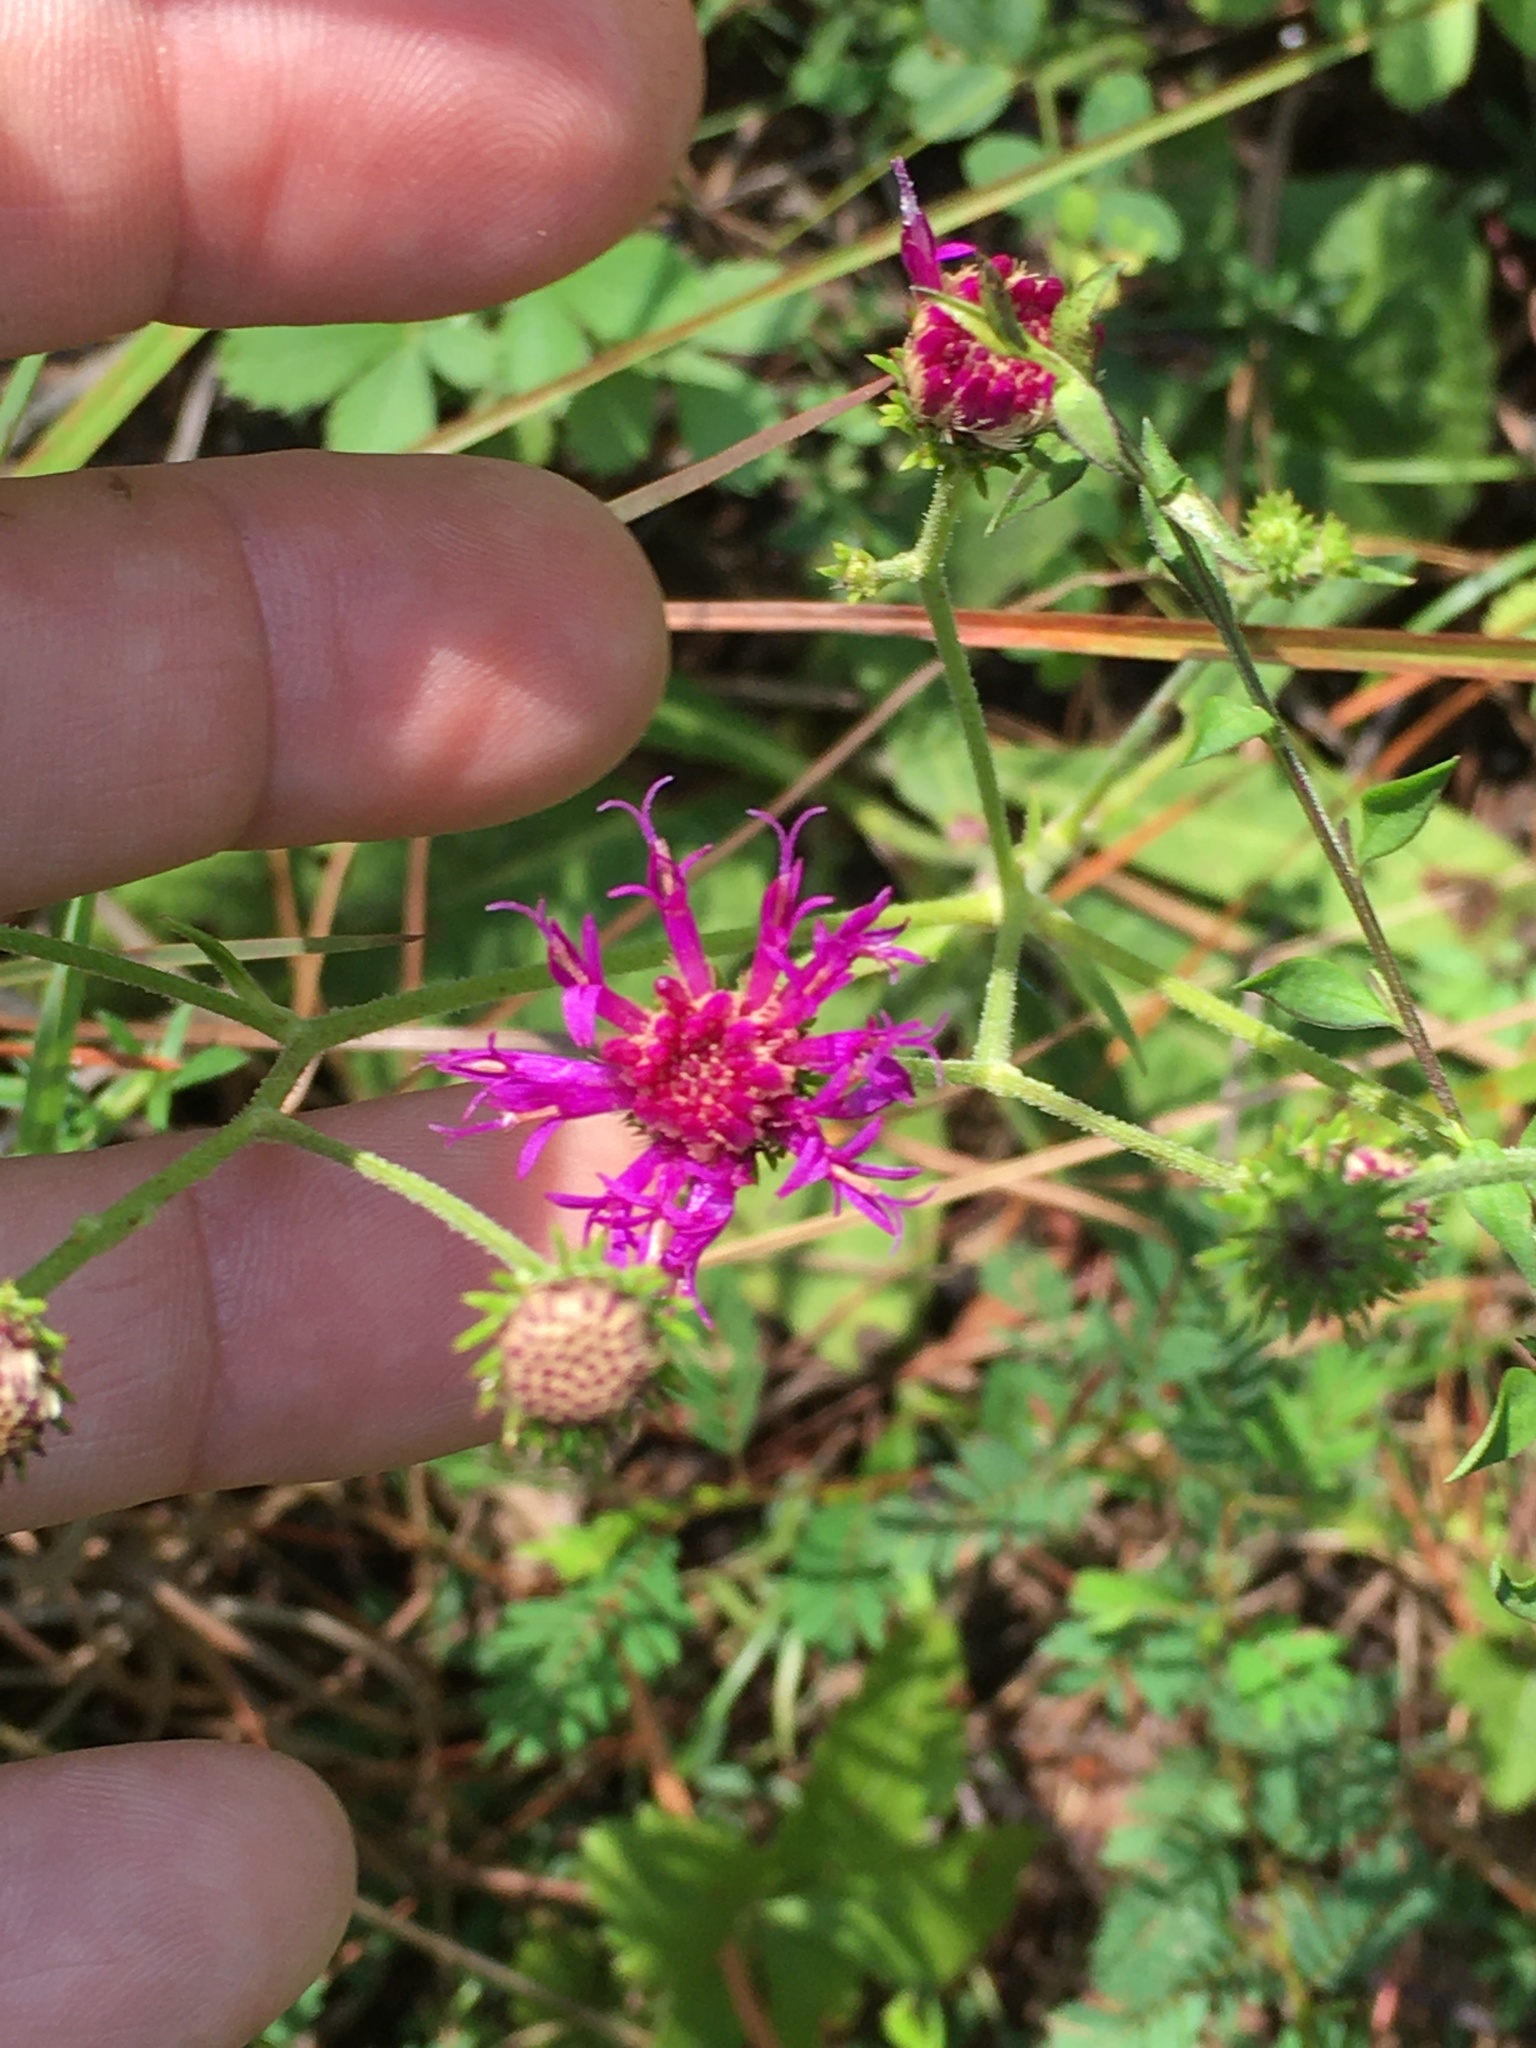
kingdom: Plantae
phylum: Tracheophyta
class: Magnoliopsida
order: Asterales
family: Asteraceae
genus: Vernonia
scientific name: Vernonia acaulis
